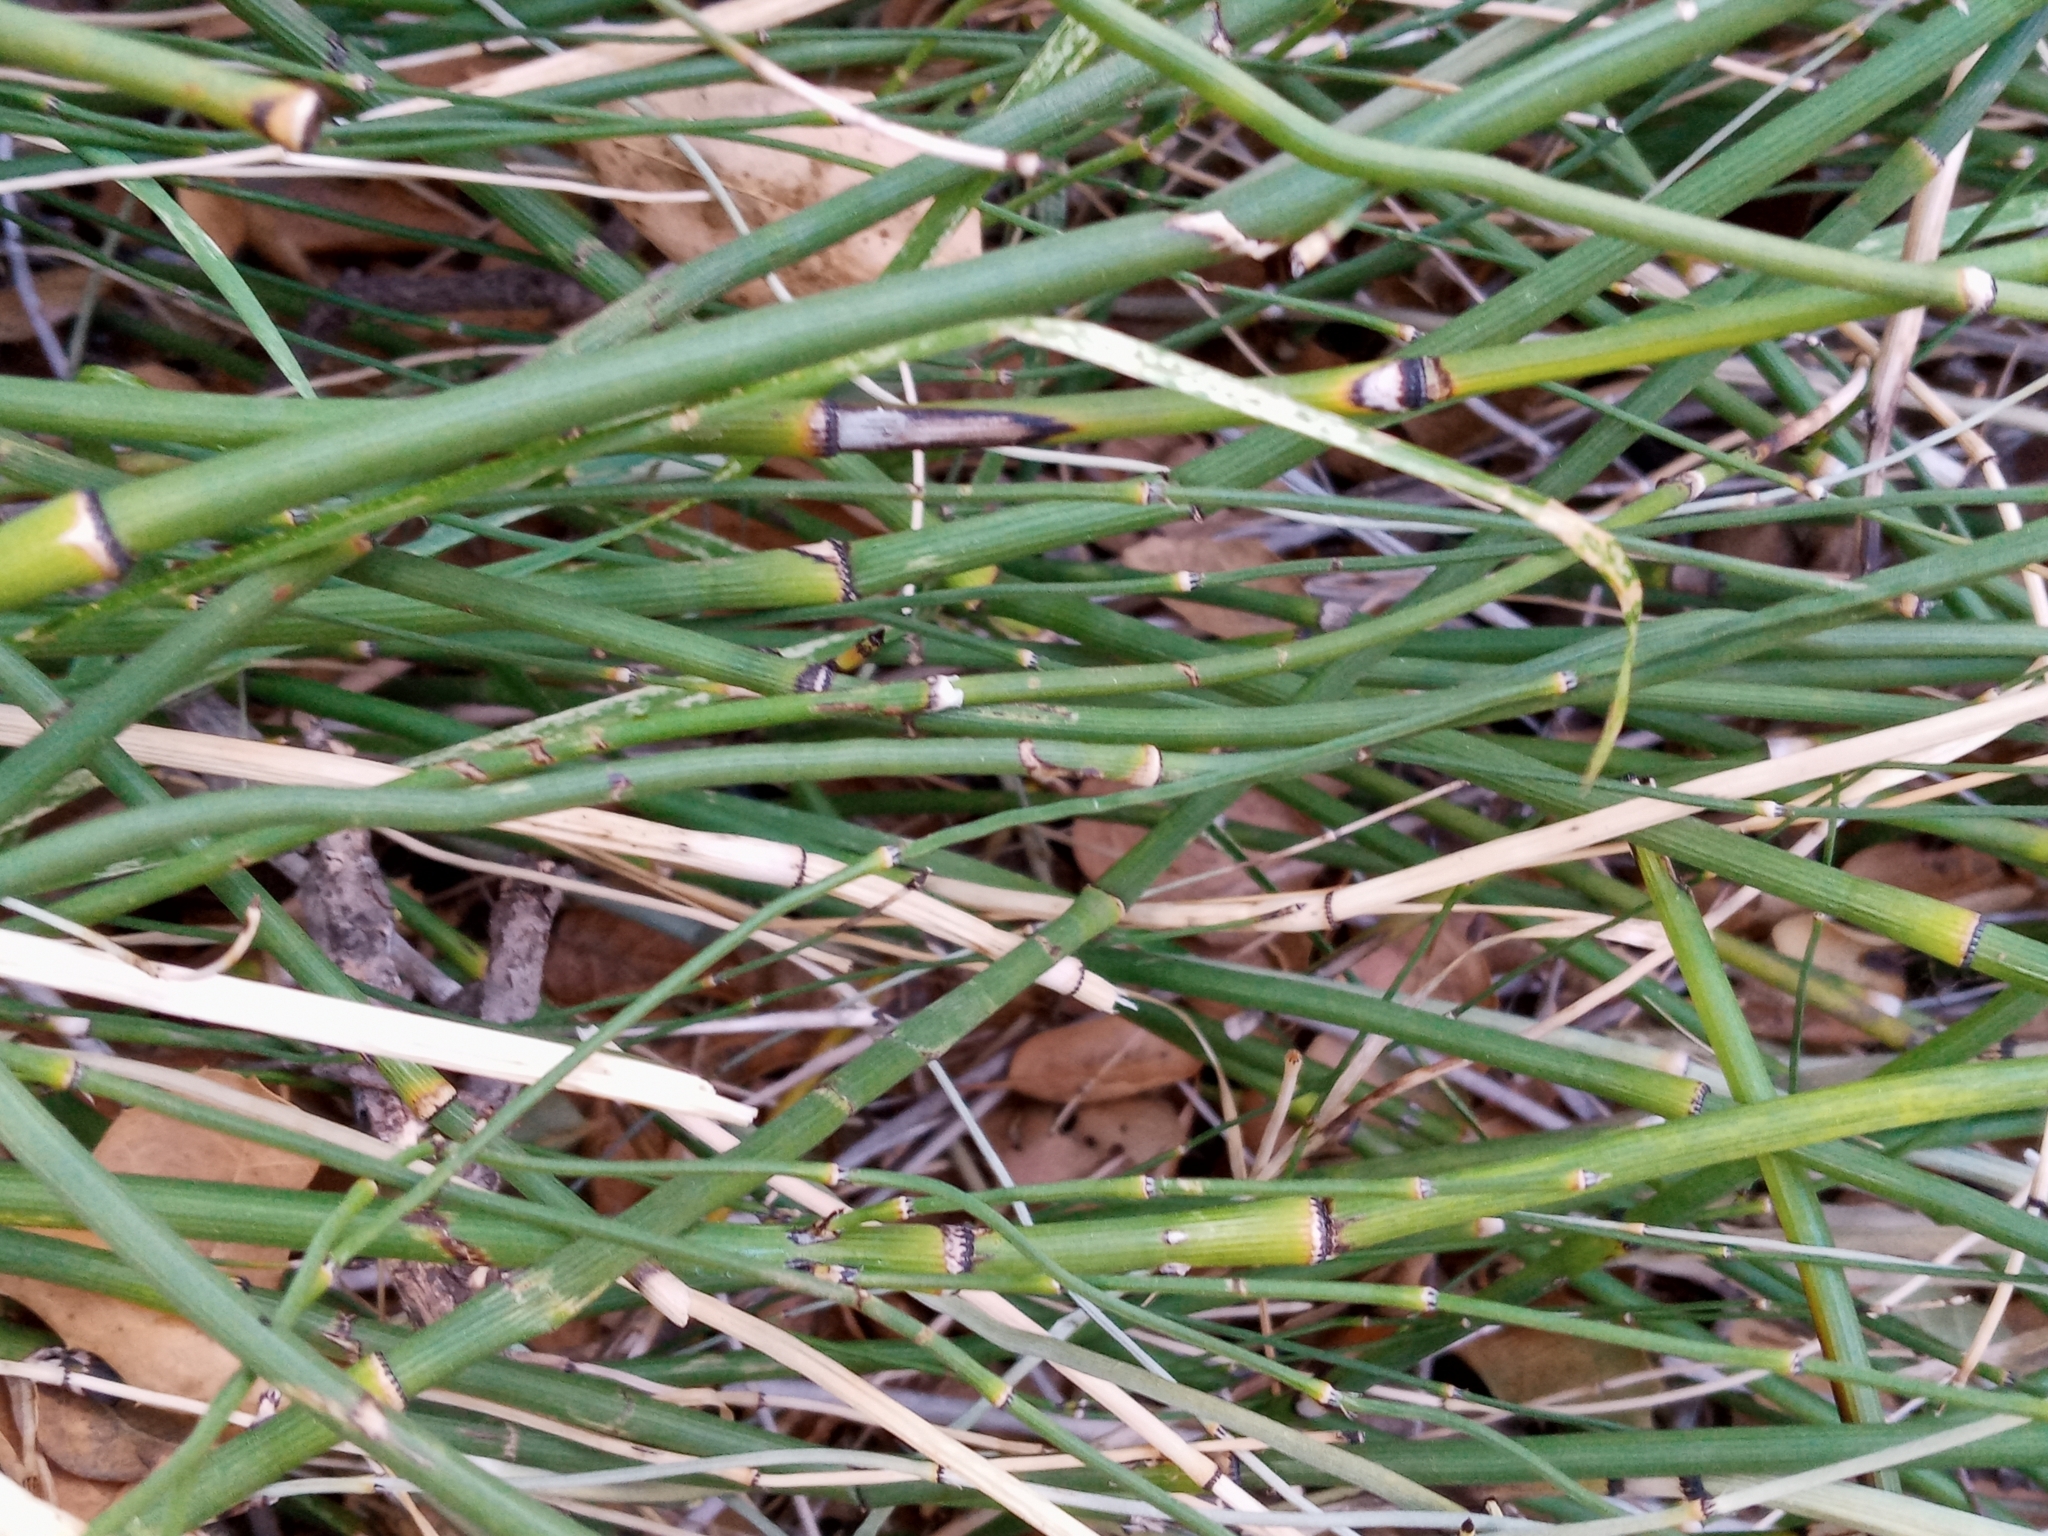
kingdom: Plantae
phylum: Tracheophyta
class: Polypodiopsida
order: Equisetales
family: Equisetaceae
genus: Equisetum
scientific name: Equisetum ferrissii
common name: Ferriss' horsetail
